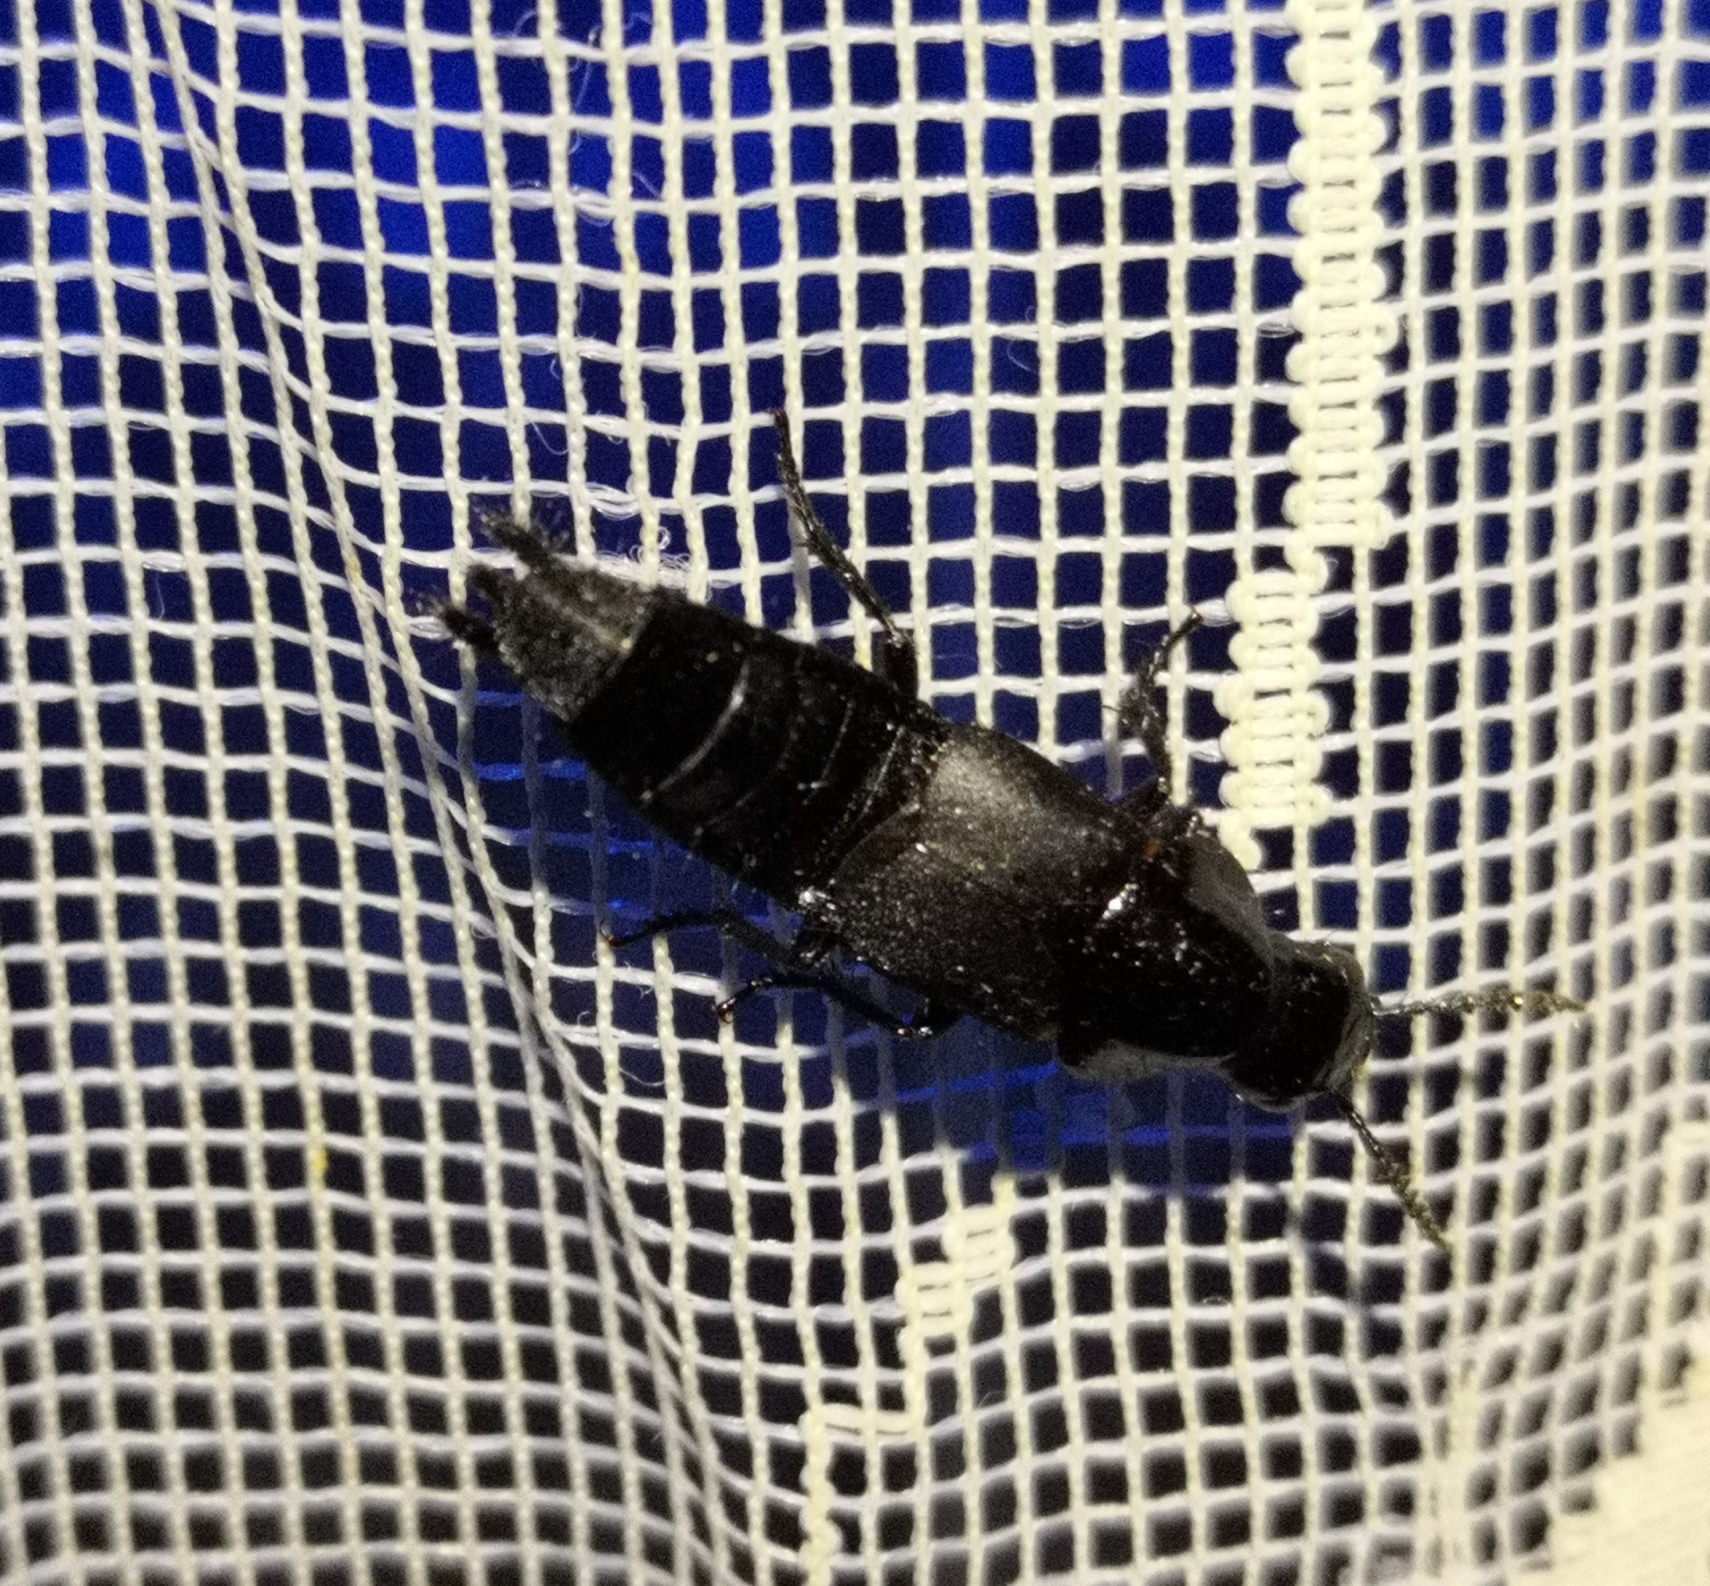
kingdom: Animalia
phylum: Arthropoda
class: Insecta
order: Coleoptera
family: Staphylinidae
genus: Quedius
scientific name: Quedius dilatatus
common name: Hornet rove-beetle
